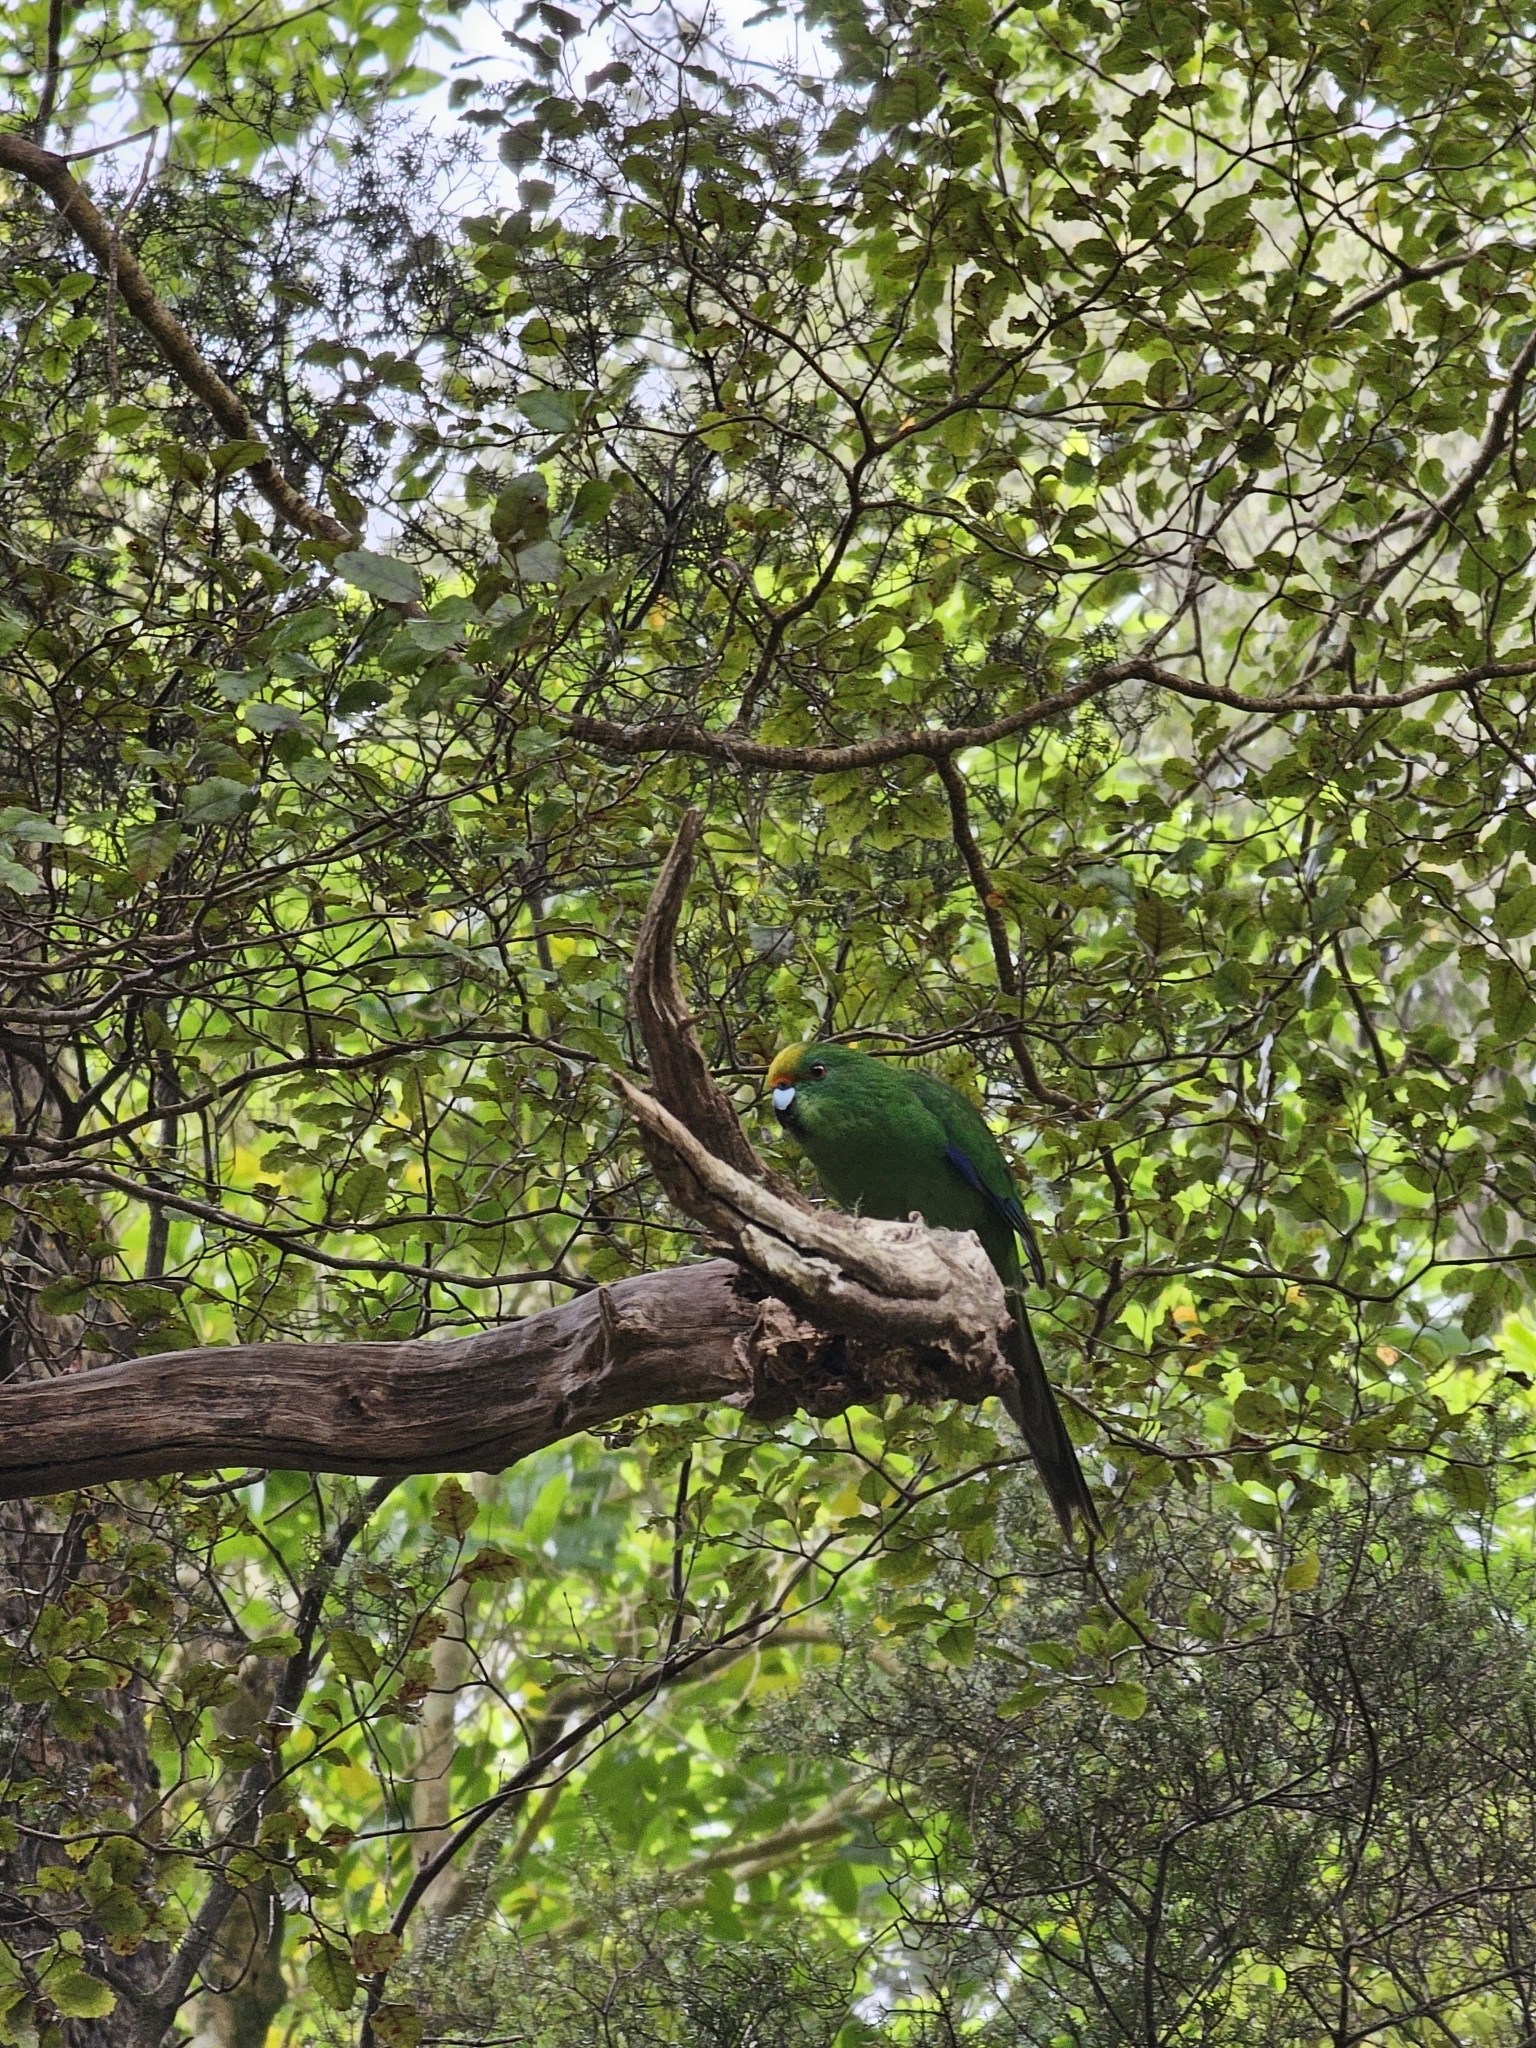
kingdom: Animalia
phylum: Chordata
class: Aves
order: Psittaciformes
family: Psittacidae
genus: Cyanoramphus
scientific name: Cyanoramphus malherbi
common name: Malherbe's parakeet
